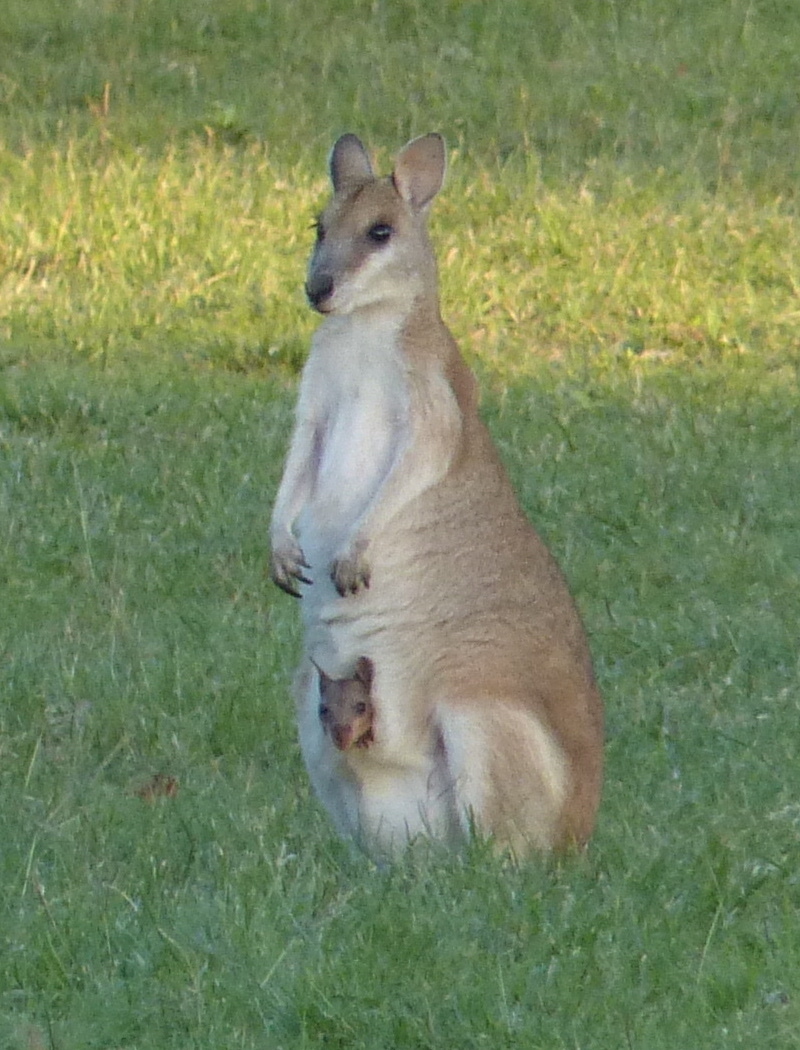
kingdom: Animalia
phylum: Chordata
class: Mammalia
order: Diprotodontia
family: Macropodidae
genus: Macropus
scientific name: Macropus agilis
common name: Agile wallaby
